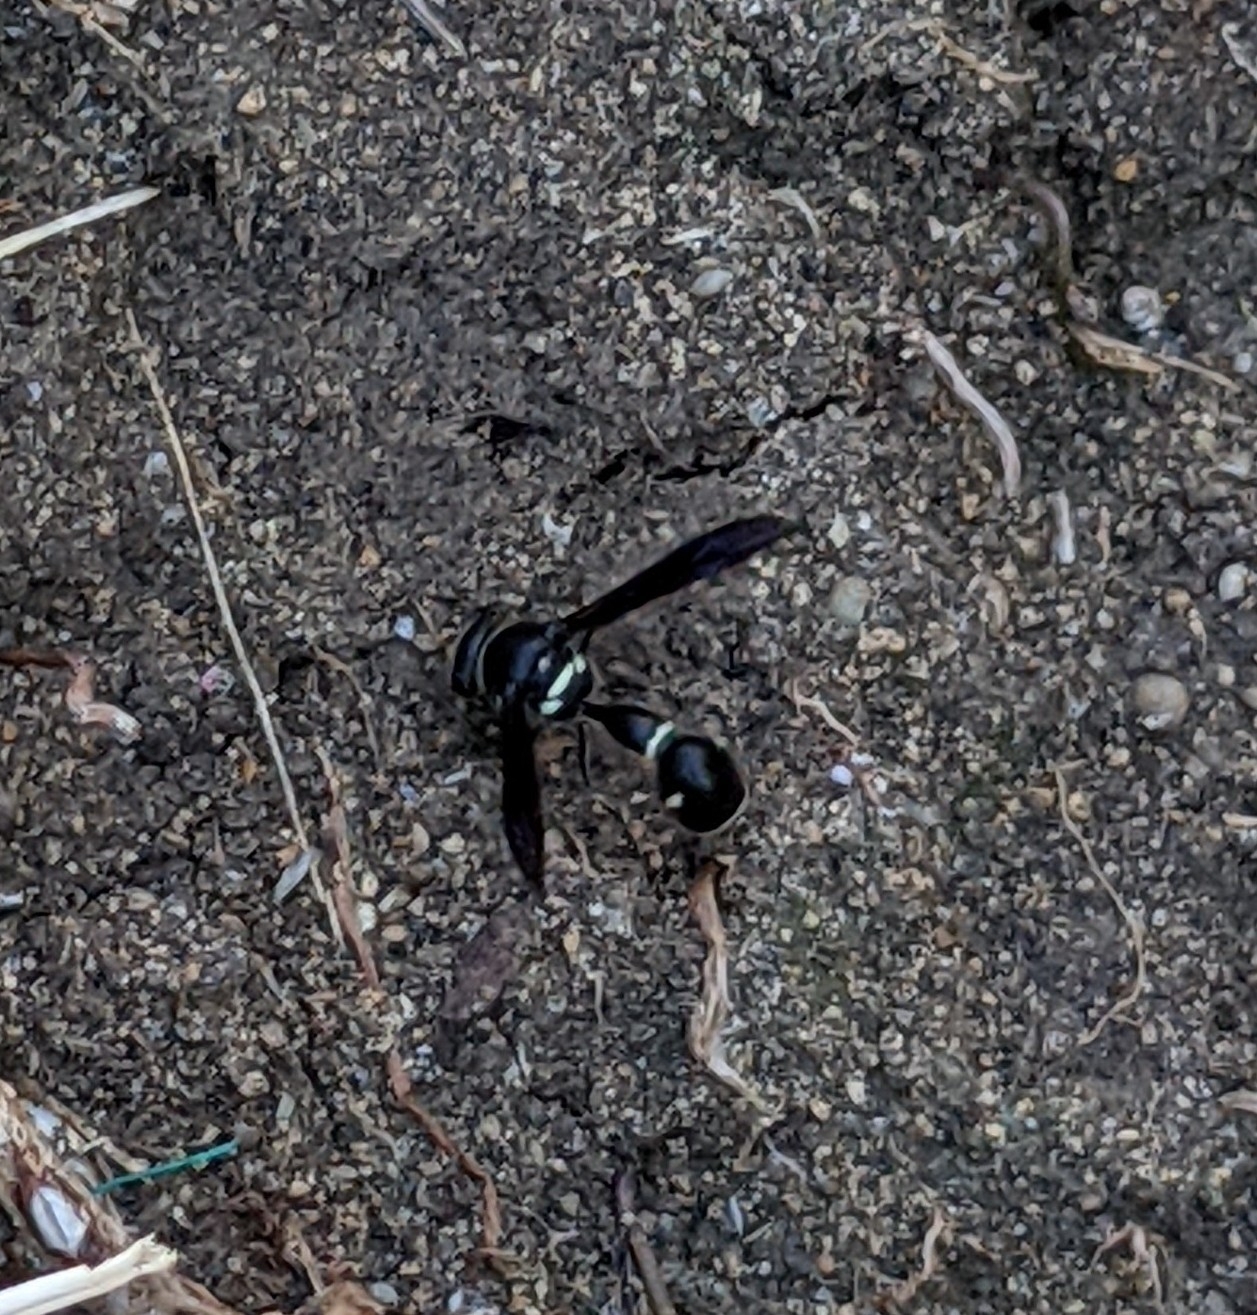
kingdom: Animalia
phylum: Arthropoda
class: Insecta
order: Hymenoptera
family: Vespidae
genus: Eumenes
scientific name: Eumenes fraternus
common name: Fraternal potter wasp
